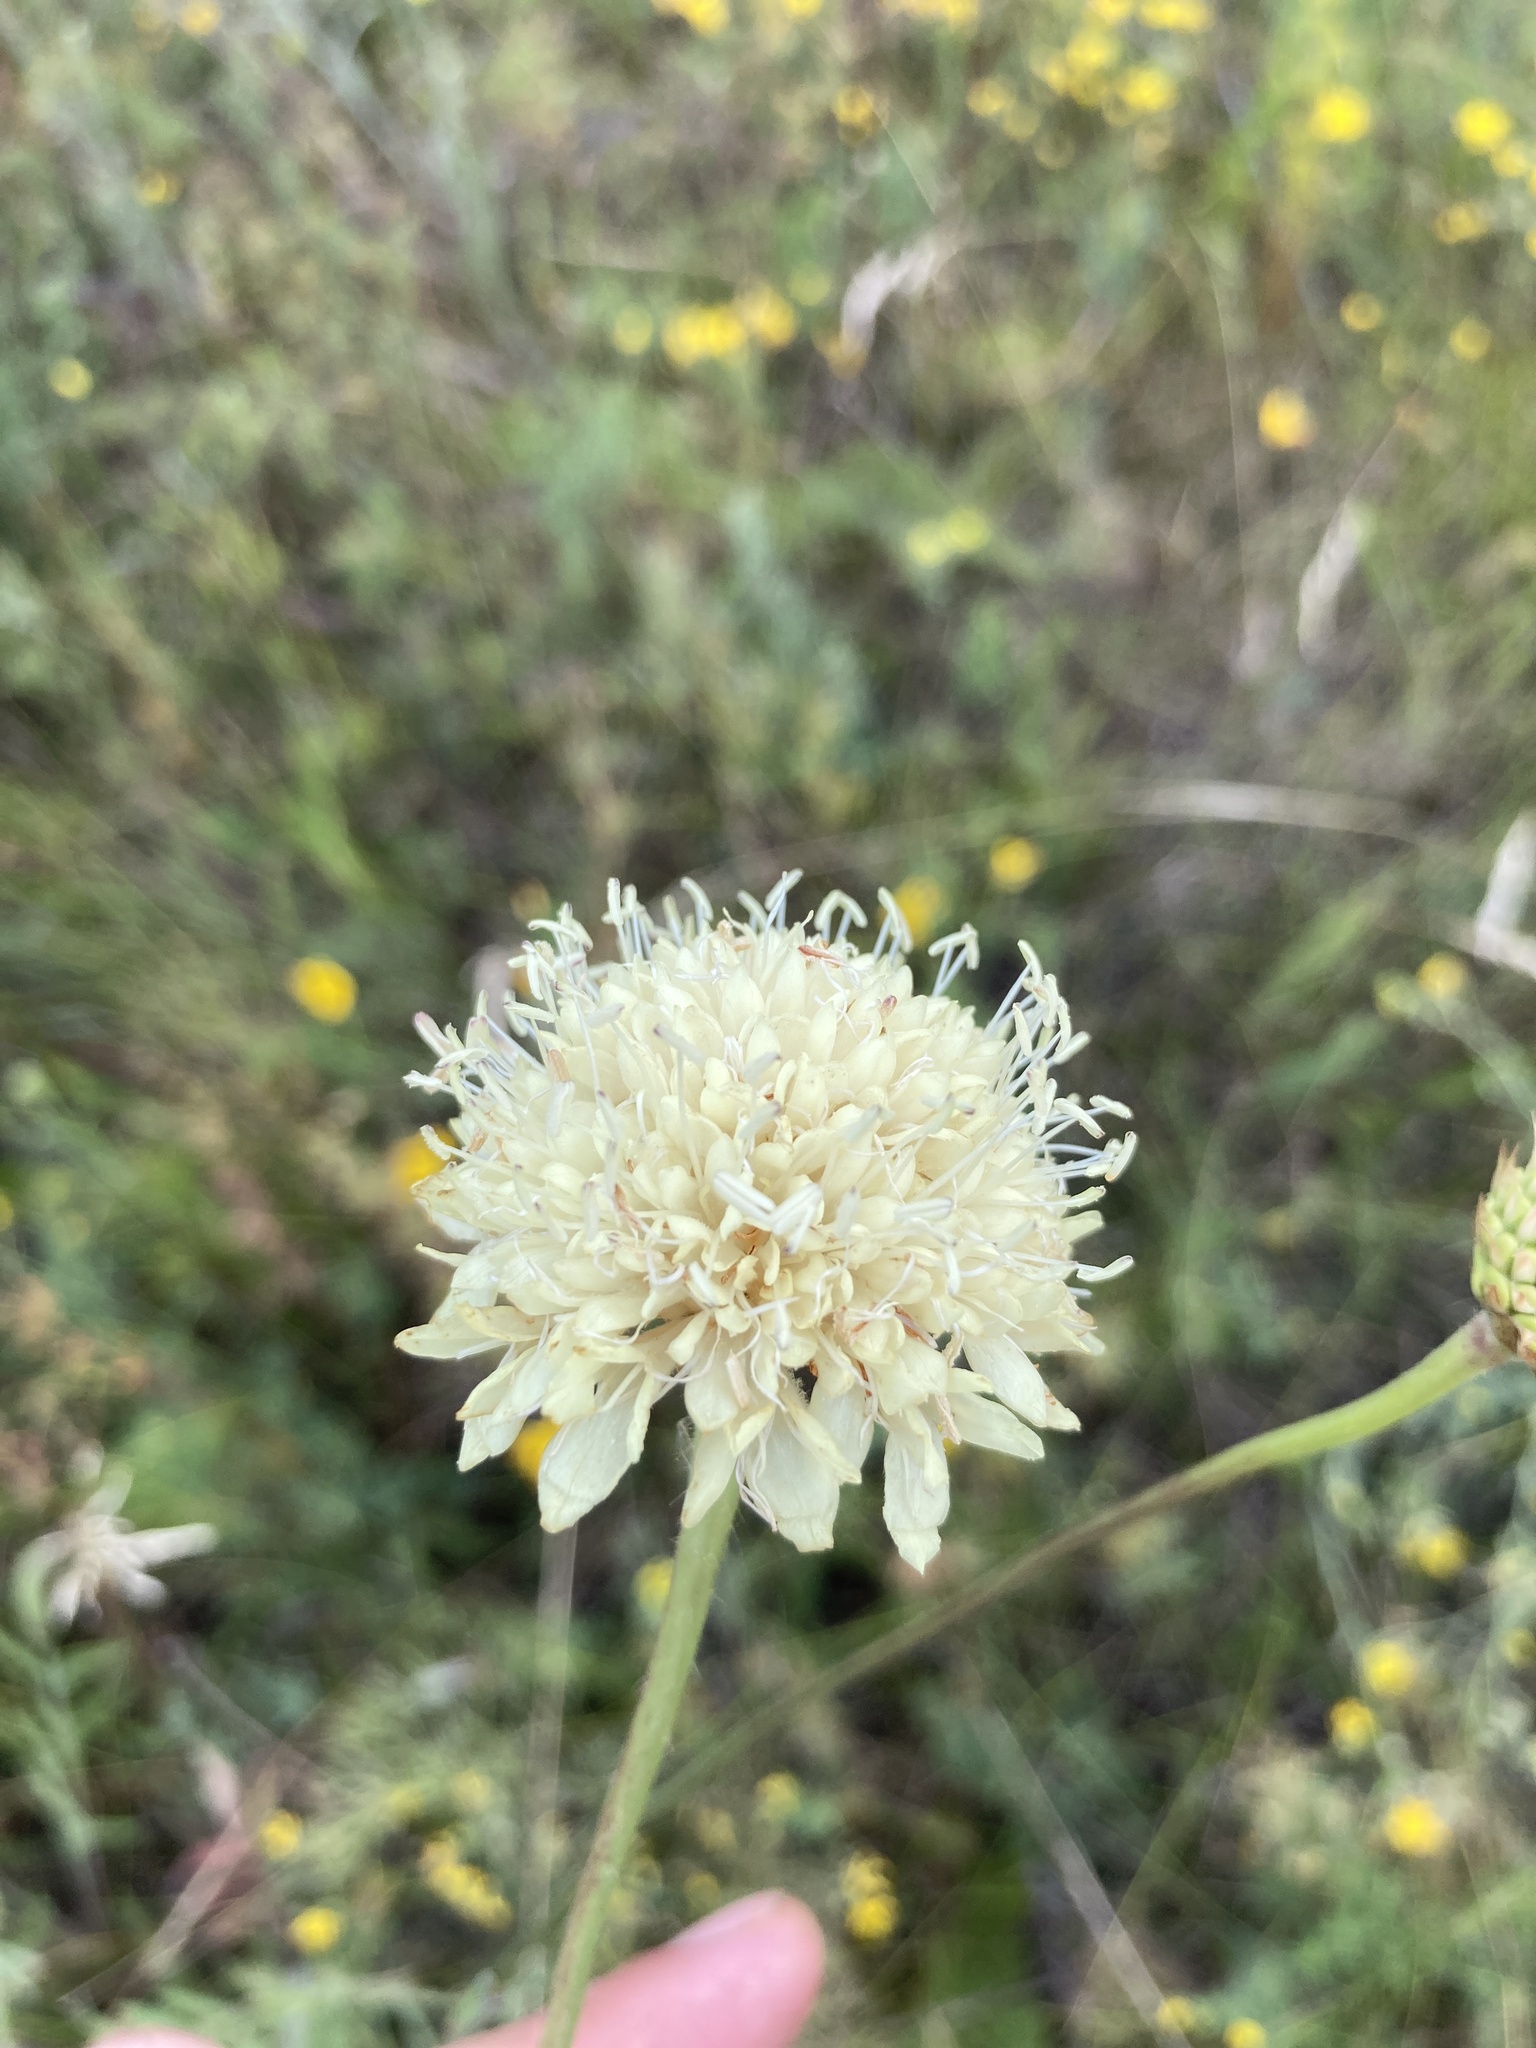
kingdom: Plantae
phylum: Tracheophyta
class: Magnoliopsida
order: Dipsacales
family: Caprifoliaceae
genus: Cephalaria
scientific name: Cephalaria uralensis
